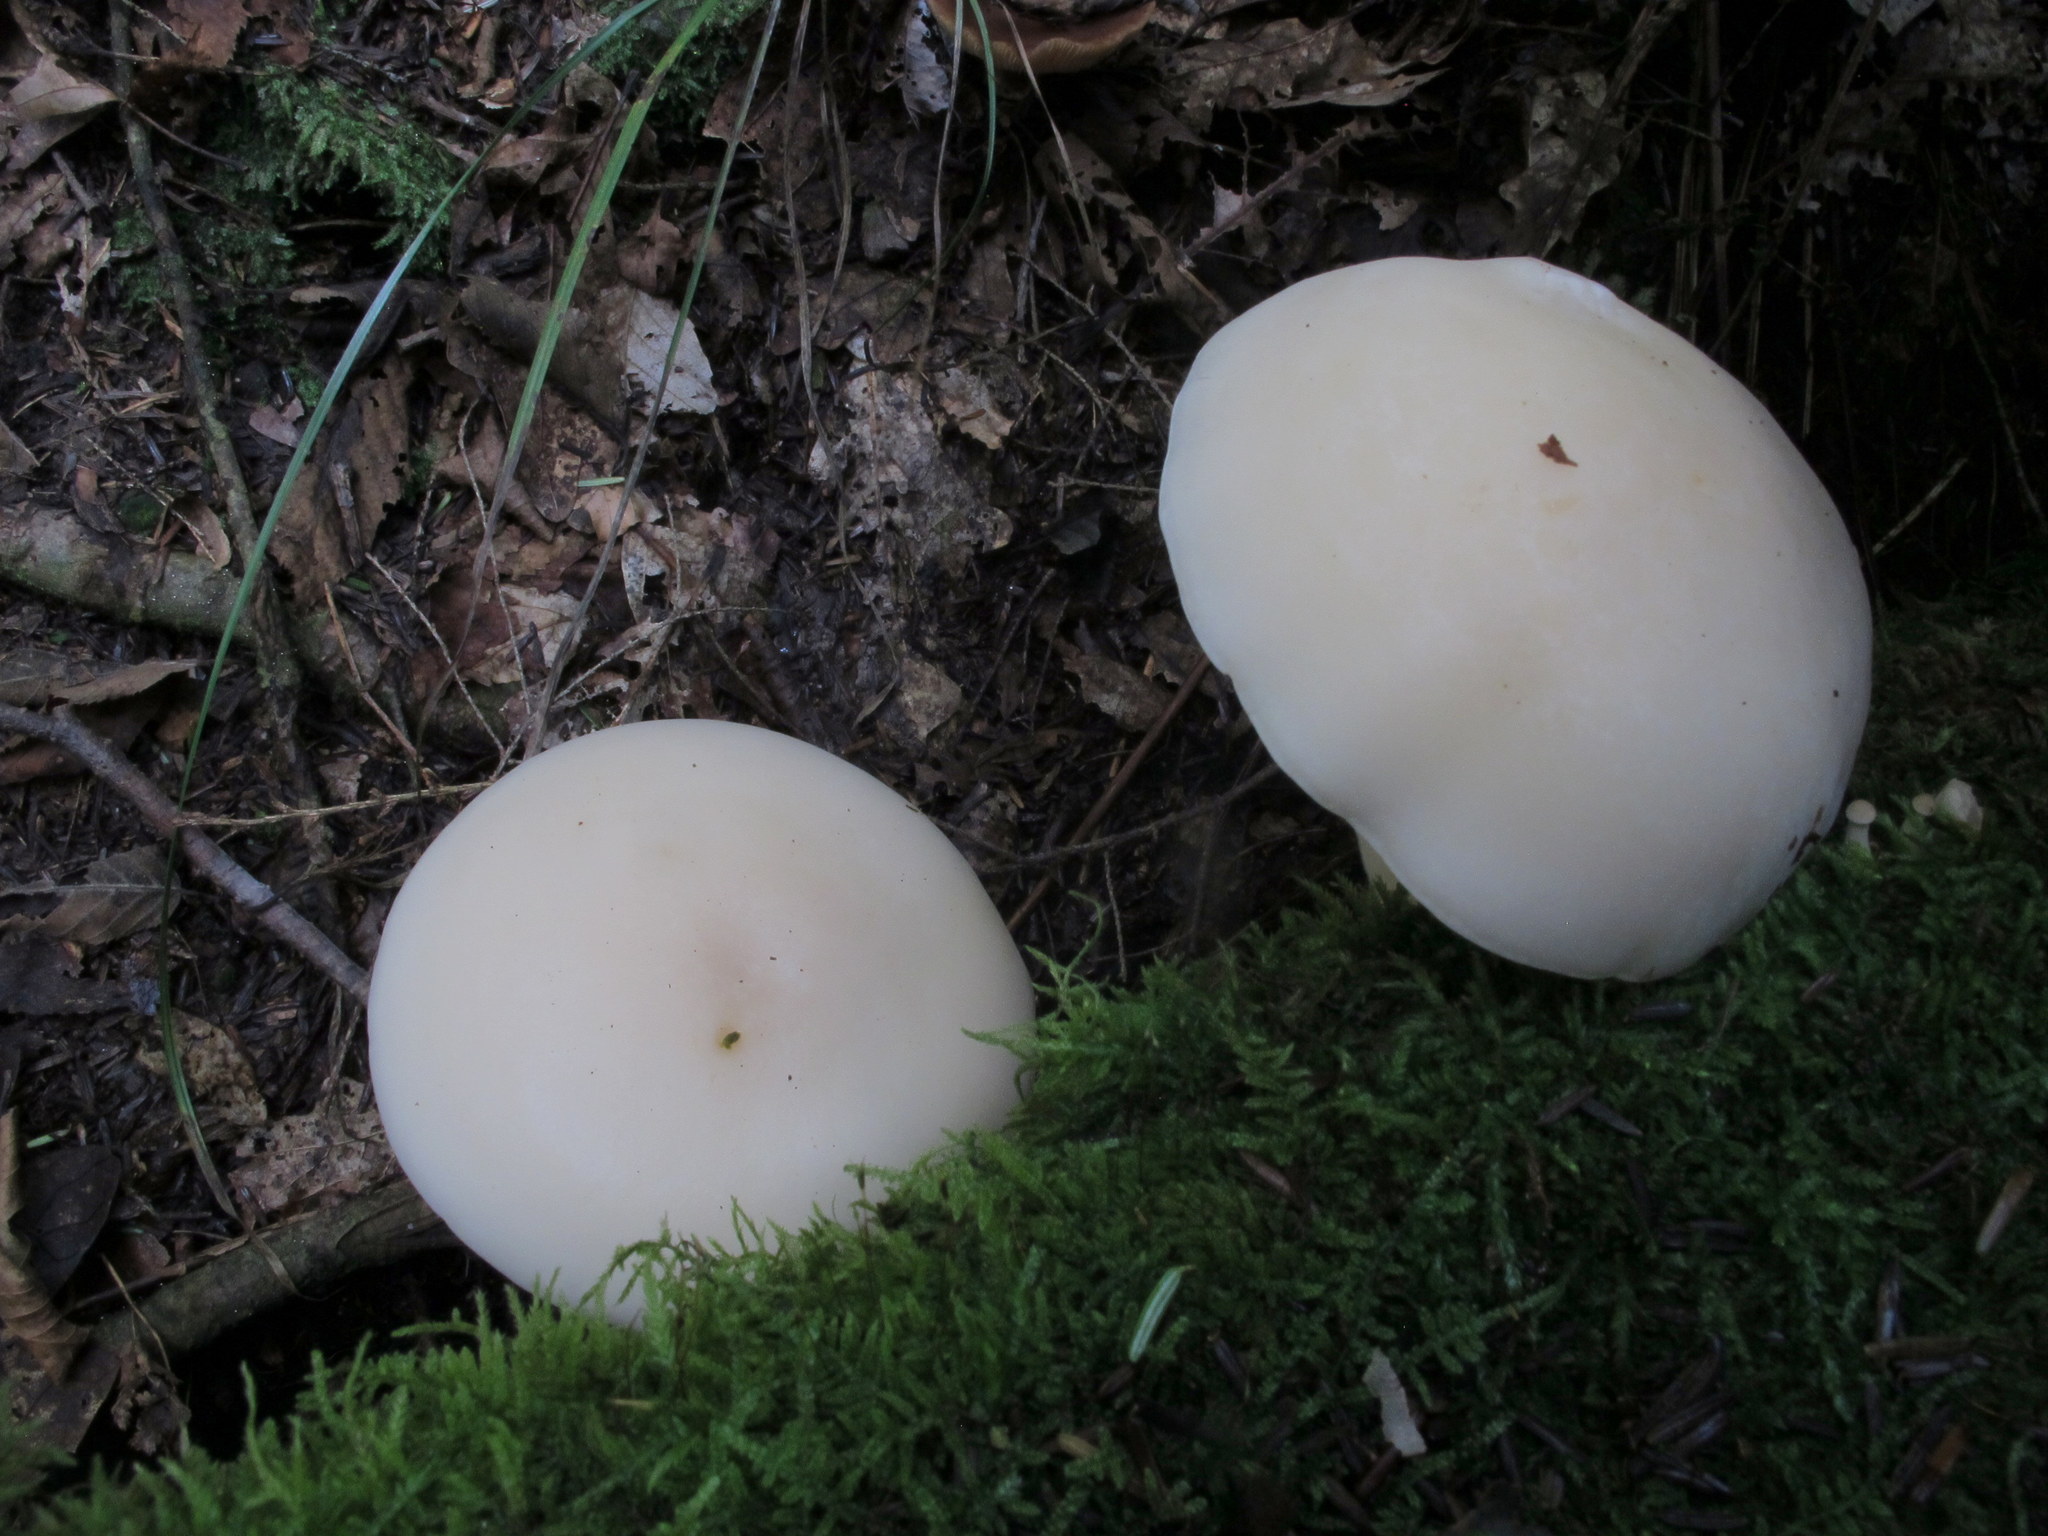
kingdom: Fungi
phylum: Basidiomycota
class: Agaricomycetes
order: Agaricales
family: Lyophyllaceae
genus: Hypsizygus
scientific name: Hypsizygus marmoreus
